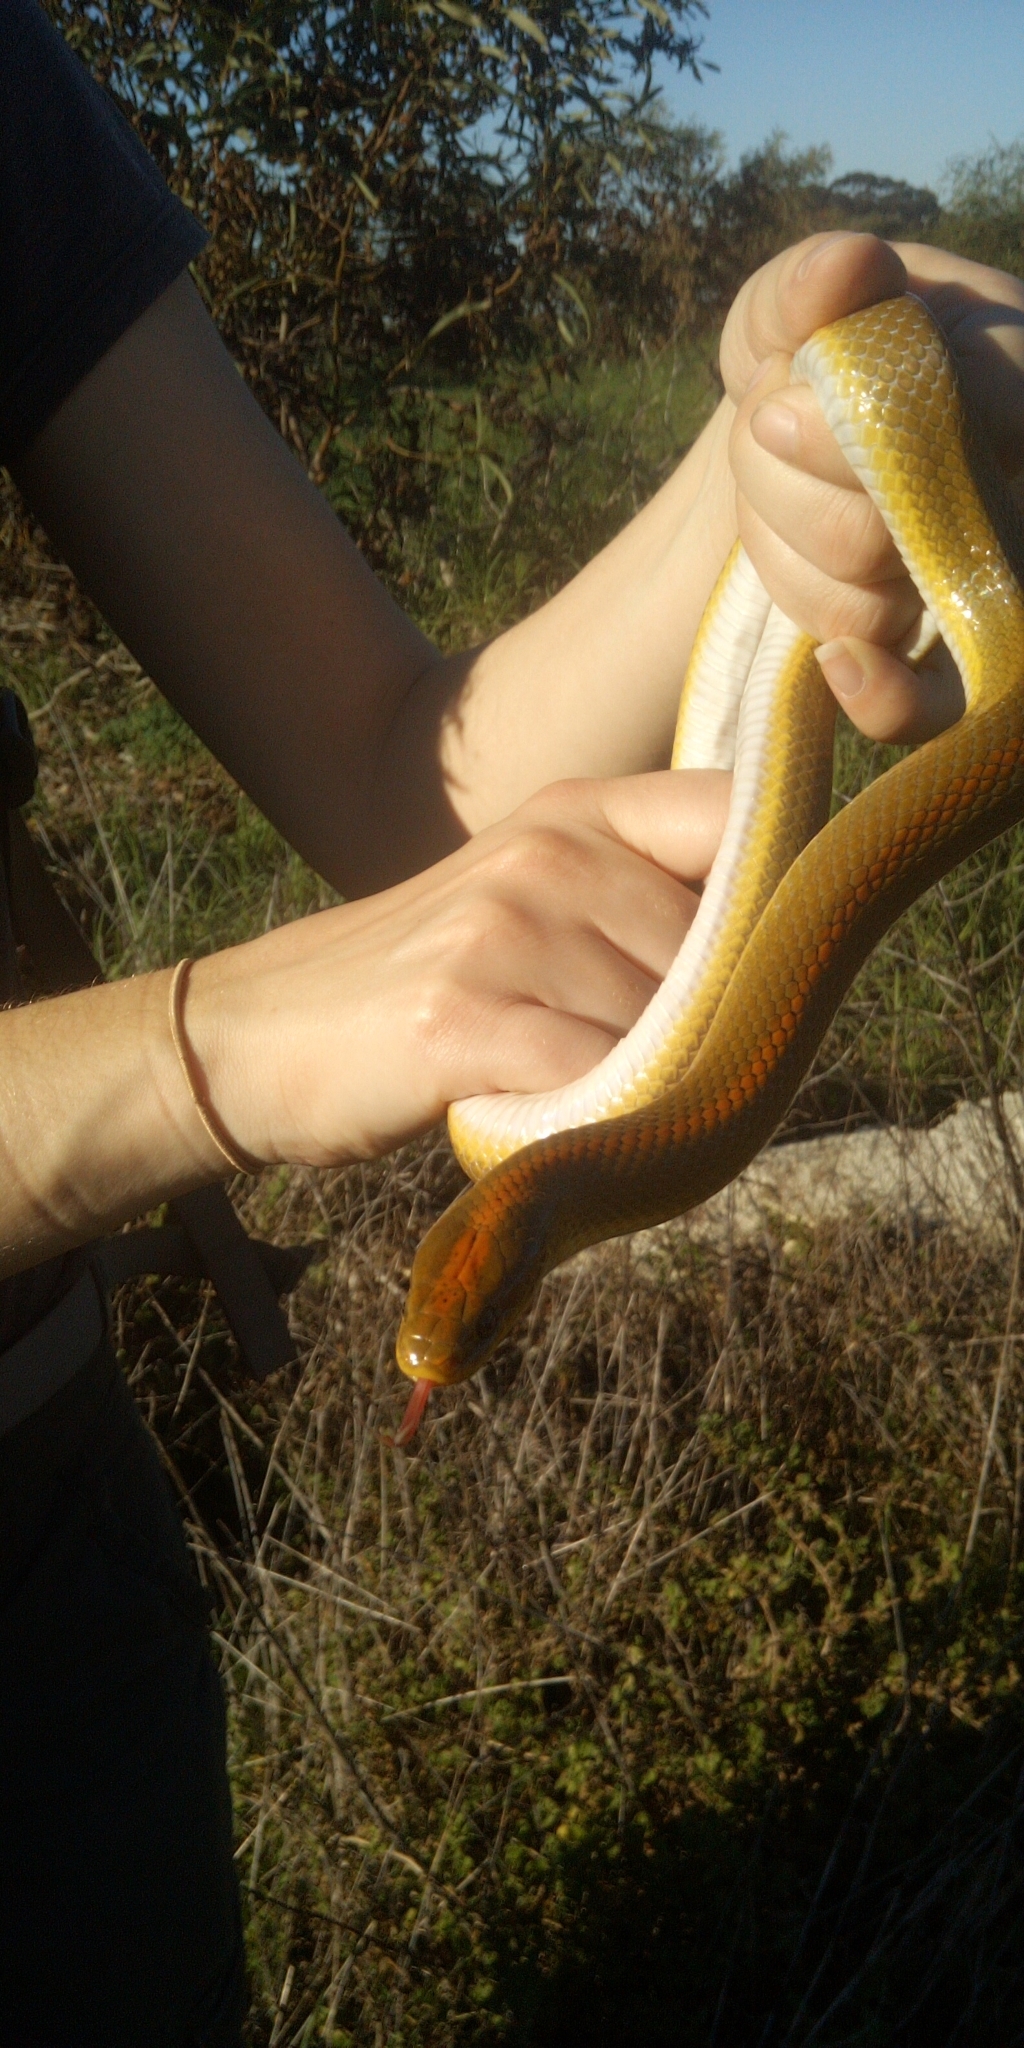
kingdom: Animalia
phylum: Chordata
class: Squamata
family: Lamprophiidae
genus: Lamprophis
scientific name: Lamprophis aurora
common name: Aurora house snake
